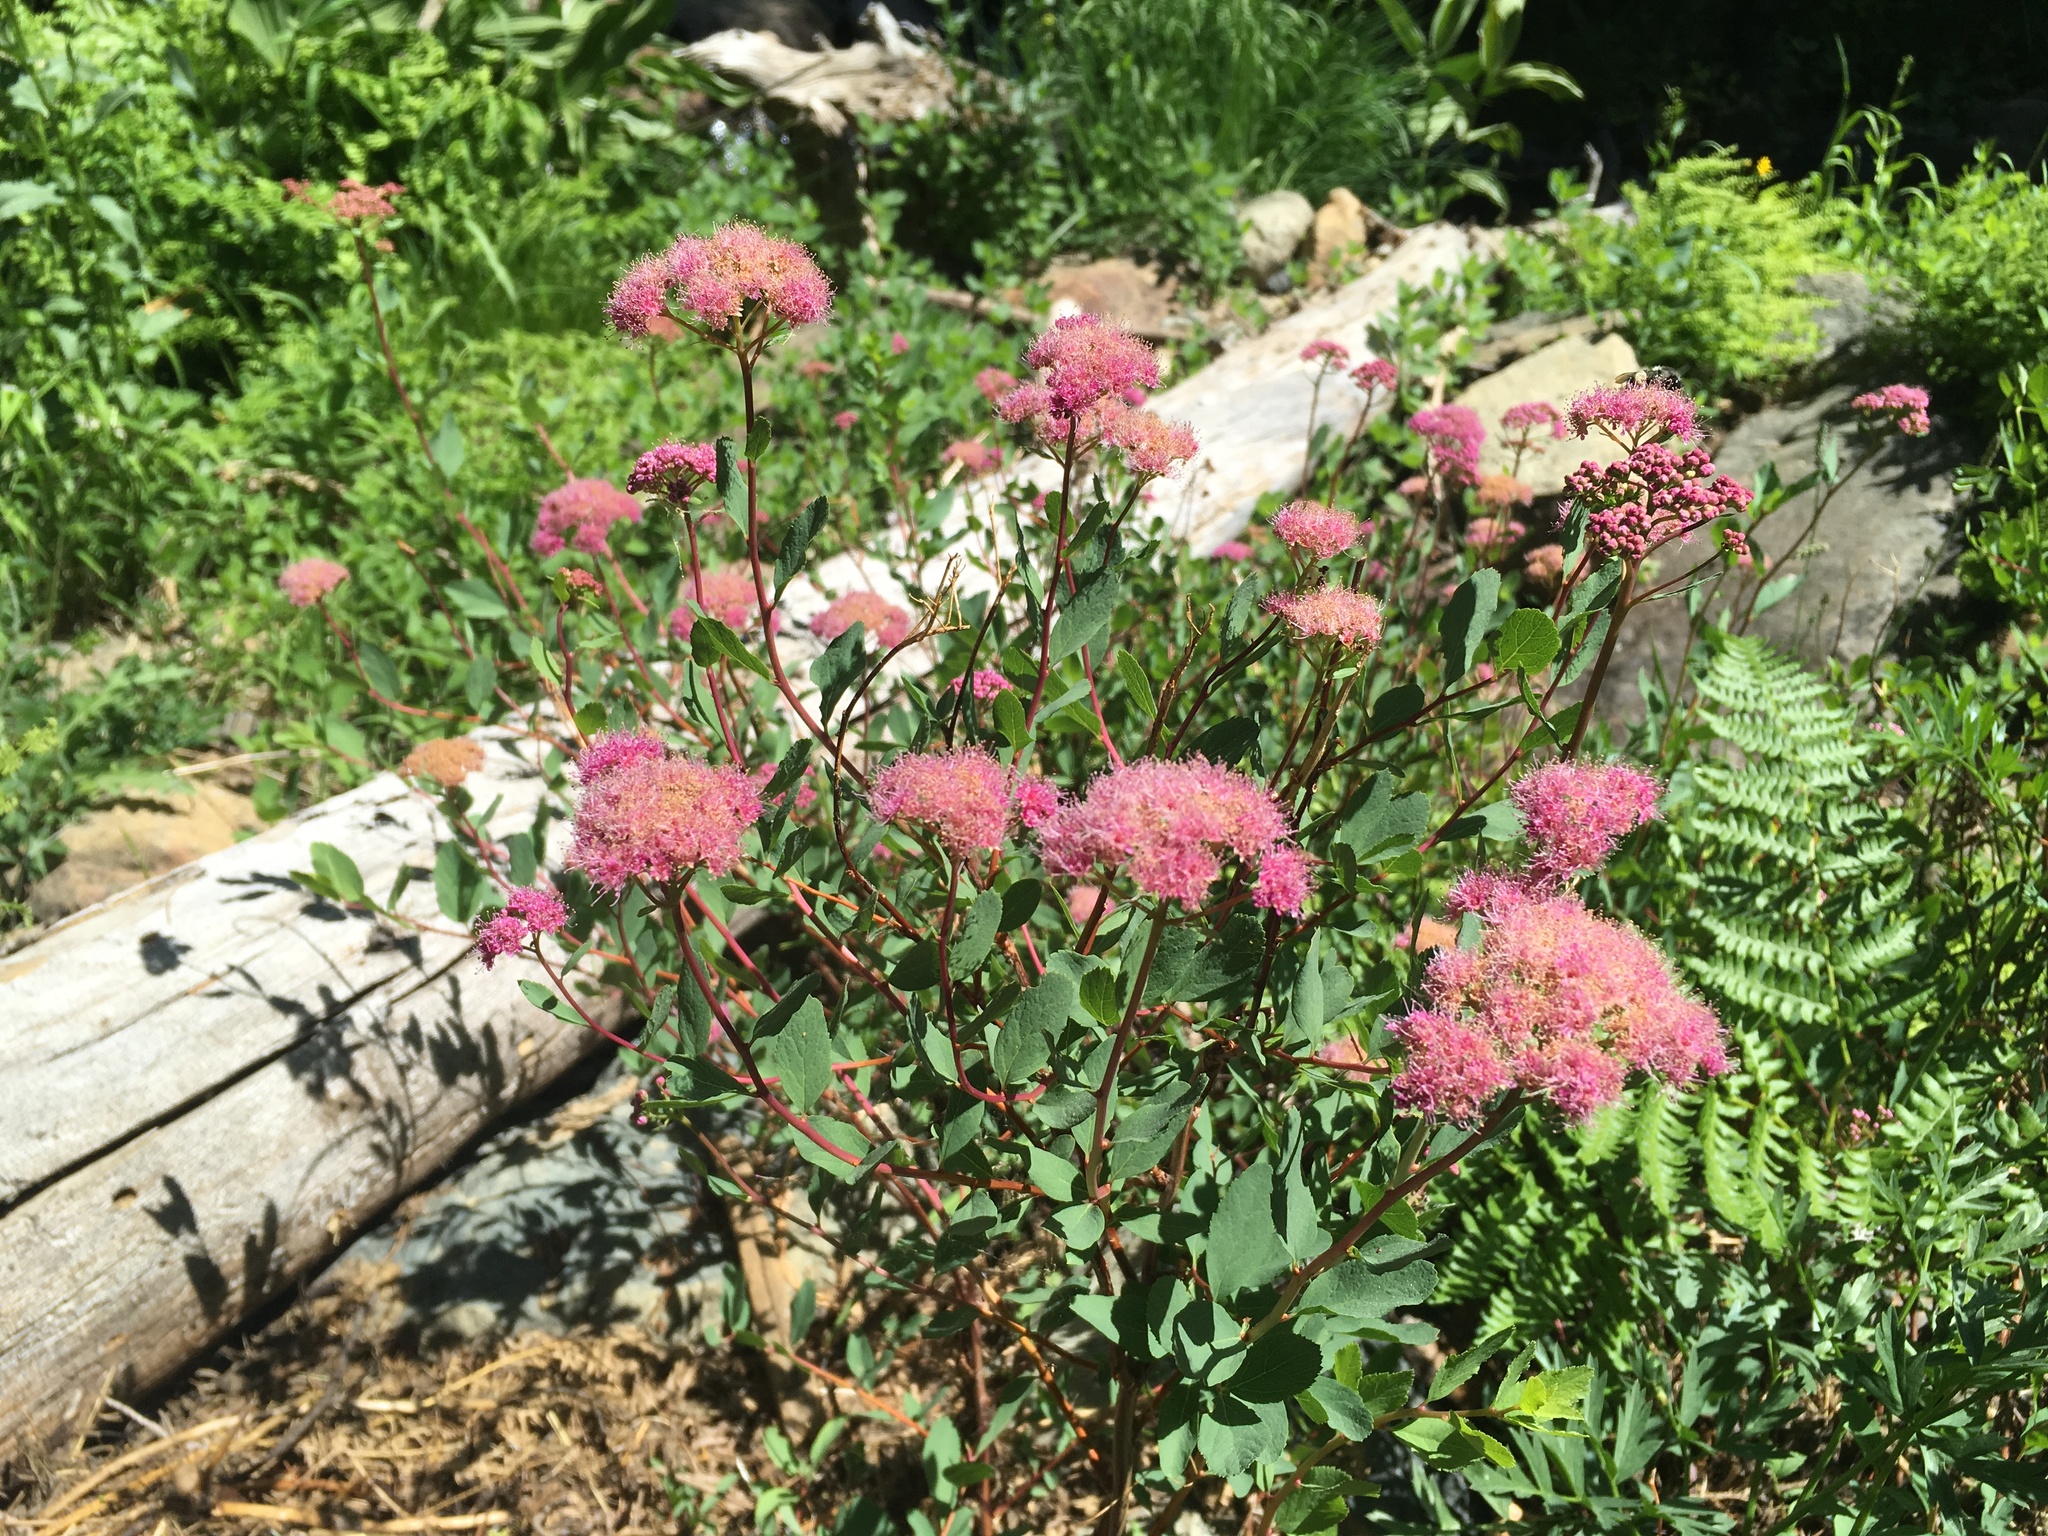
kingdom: Plantae
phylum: Tracheophyta
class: Magnoliopsida
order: Rosales
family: Rosaceae
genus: Spiraea
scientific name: Spiraea splendens
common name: Subalpine meadowsweet
